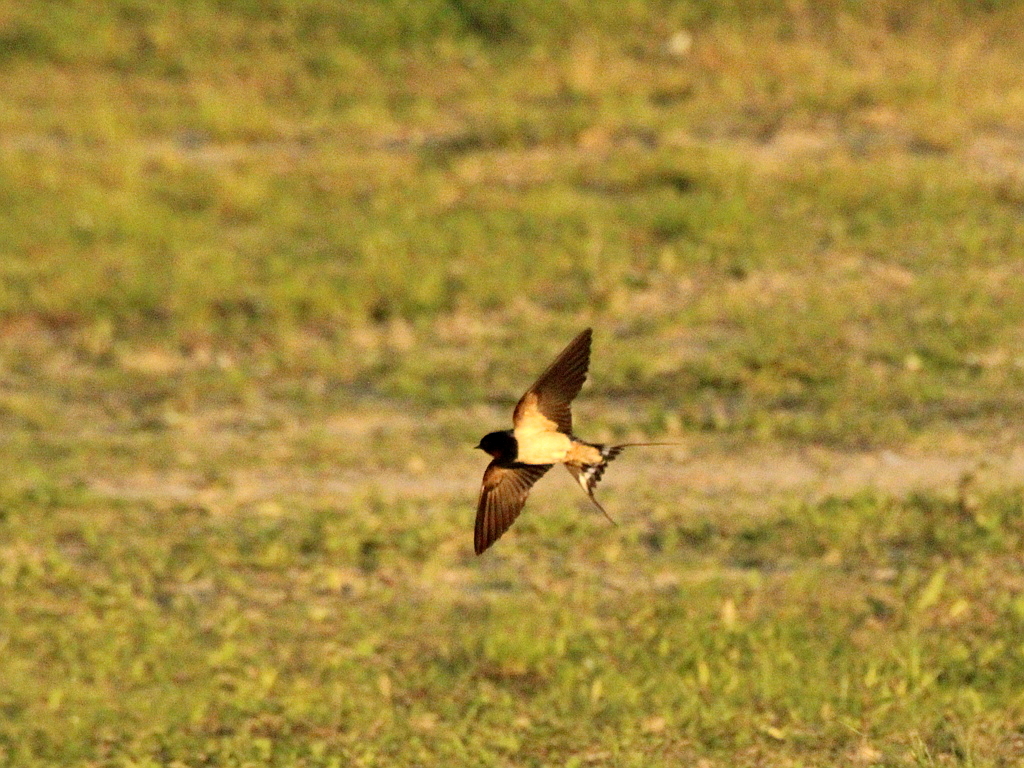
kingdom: Animalia
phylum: Chordata
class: Aves
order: Passeriformes
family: Hirundinidae
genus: Hirundo
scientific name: Hirundo rustica
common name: Barn swallow
